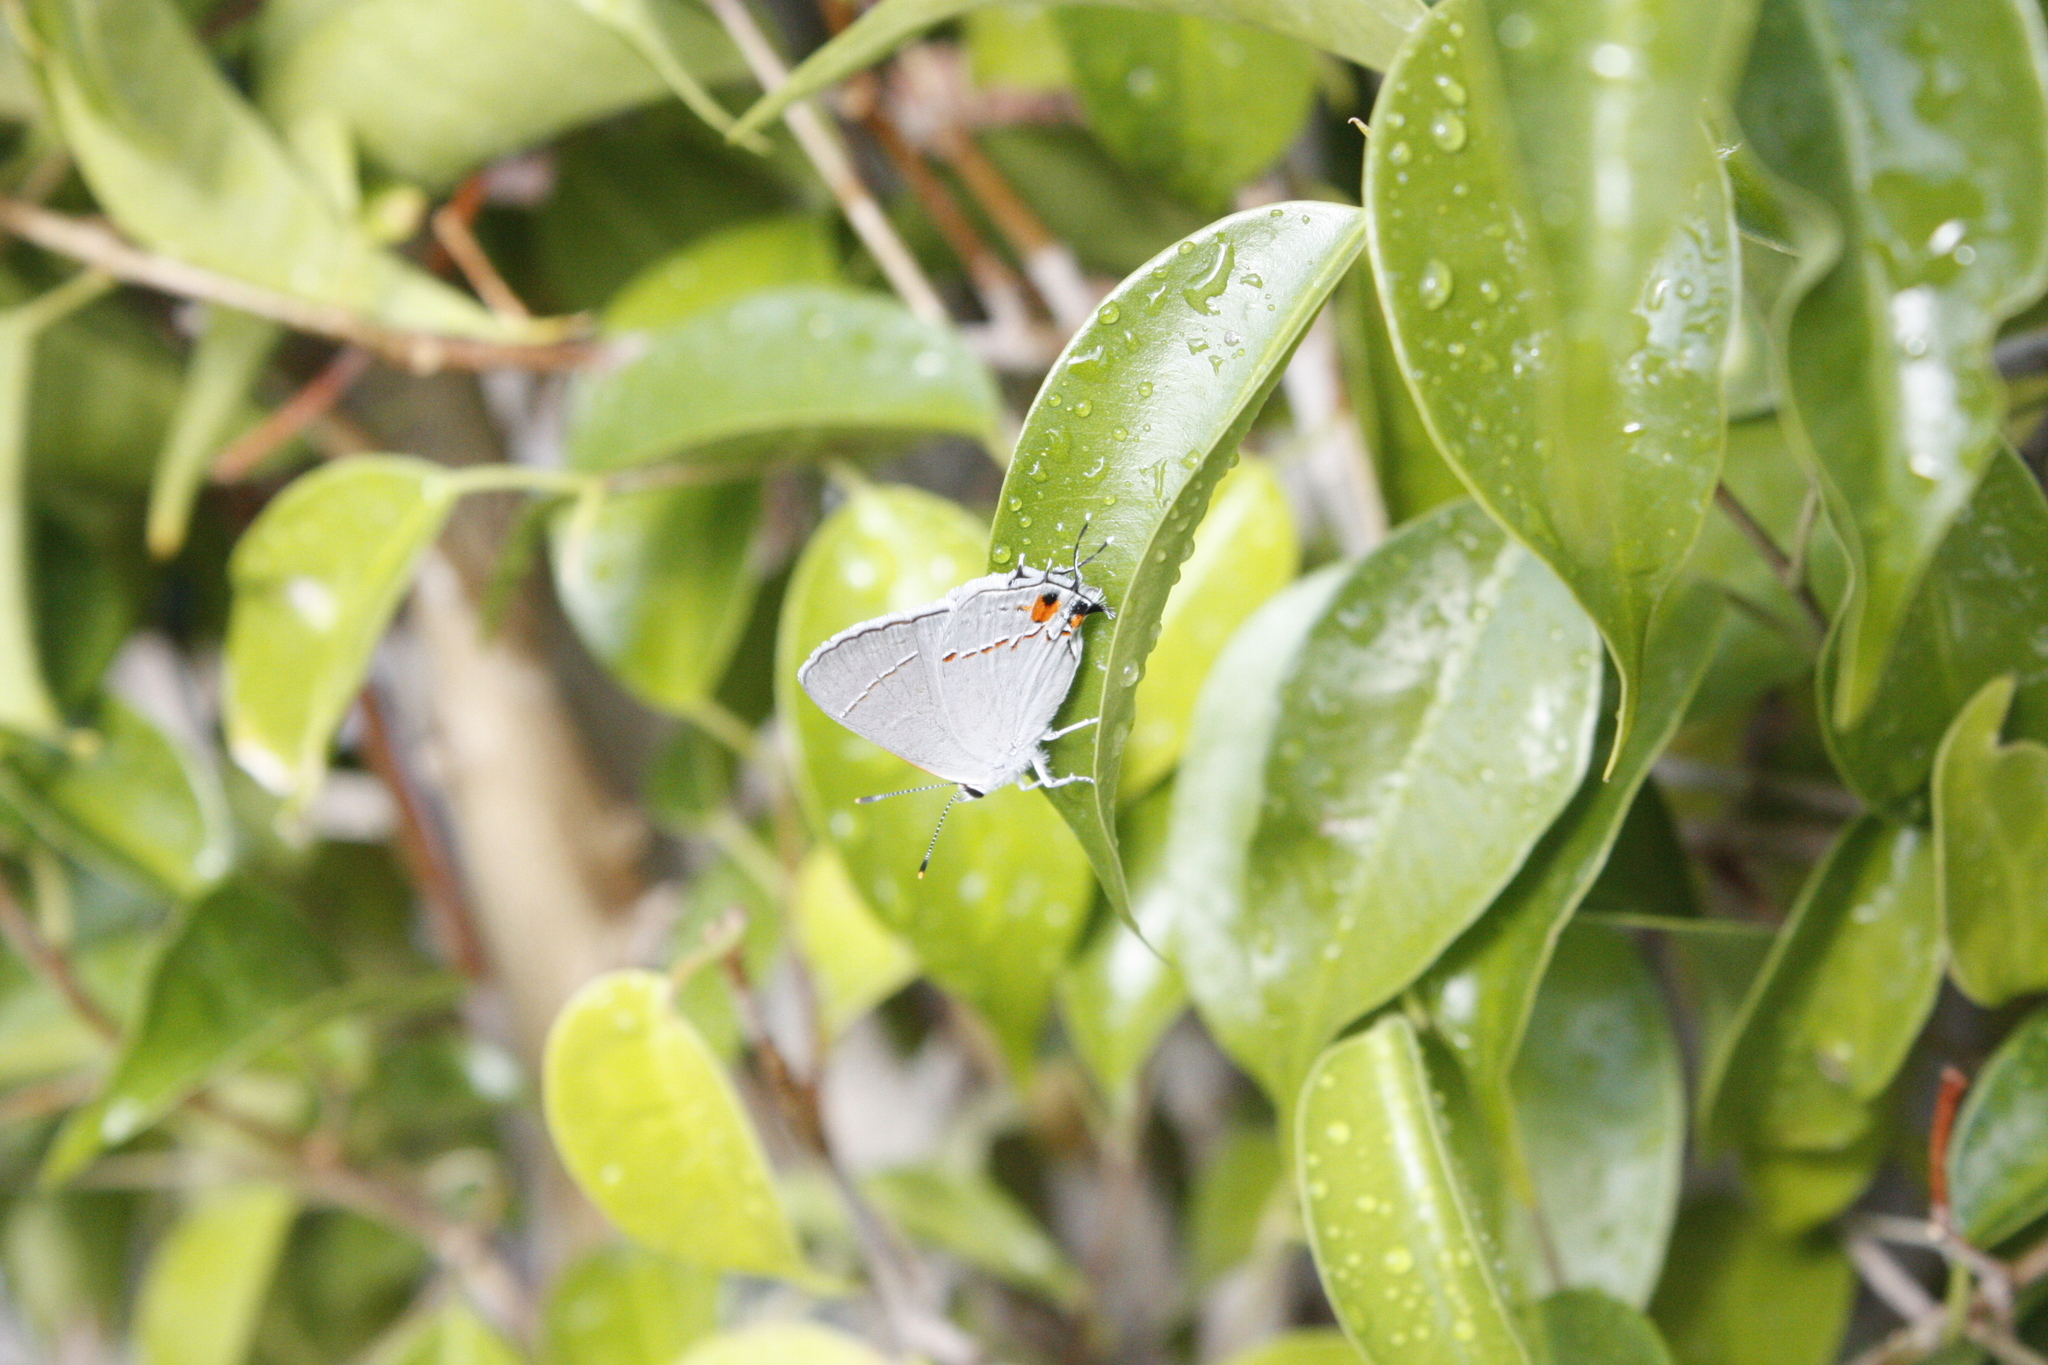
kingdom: Animalia
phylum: Arthropoda
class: Insecta
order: Lepidoptera
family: Lycaenidae
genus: Strymon
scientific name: Strymon melinus
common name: Gray hairstreak
